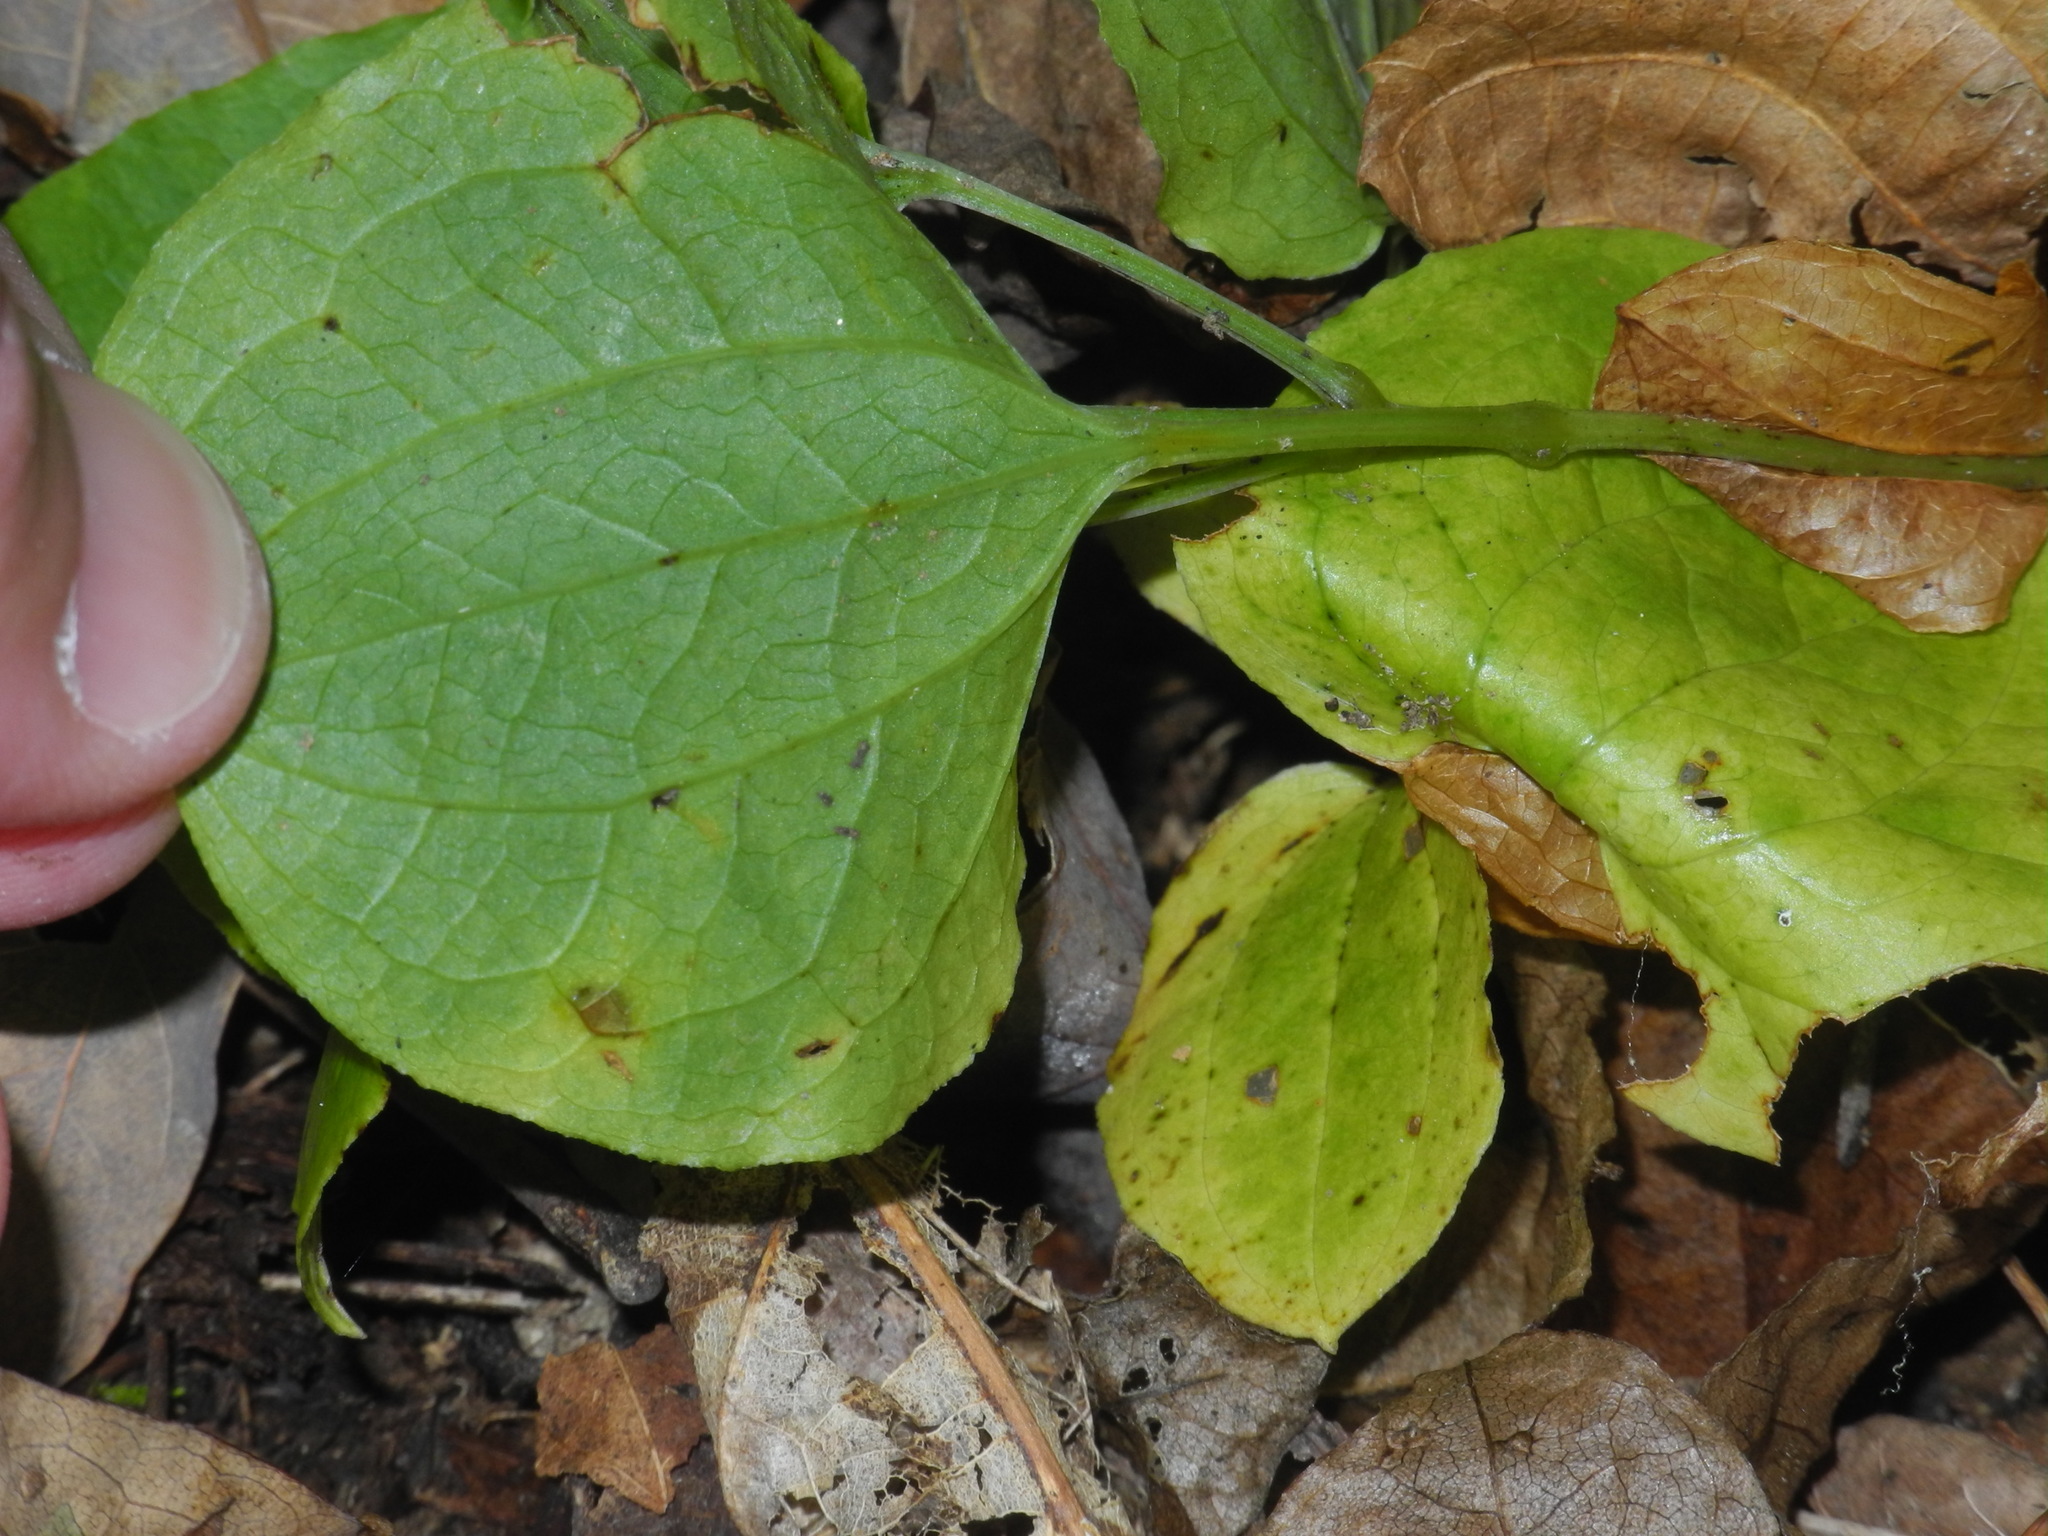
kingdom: Plantae
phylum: Tracheophyta
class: Liliopsida
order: Liliales
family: Smilacaceae
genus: Smilax
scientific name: Smilax biltmoreana
